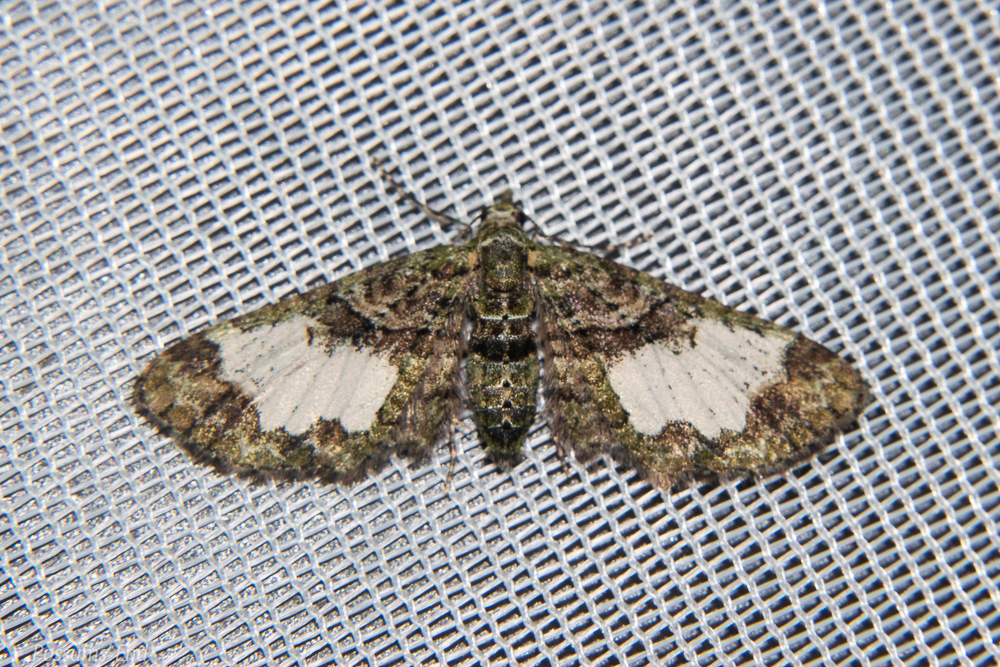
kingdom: Animalia
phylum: Arthropoda
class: Insecta
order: Lepidoptera
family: Geometridae
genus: Idaea
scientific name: Idaea mutanda
